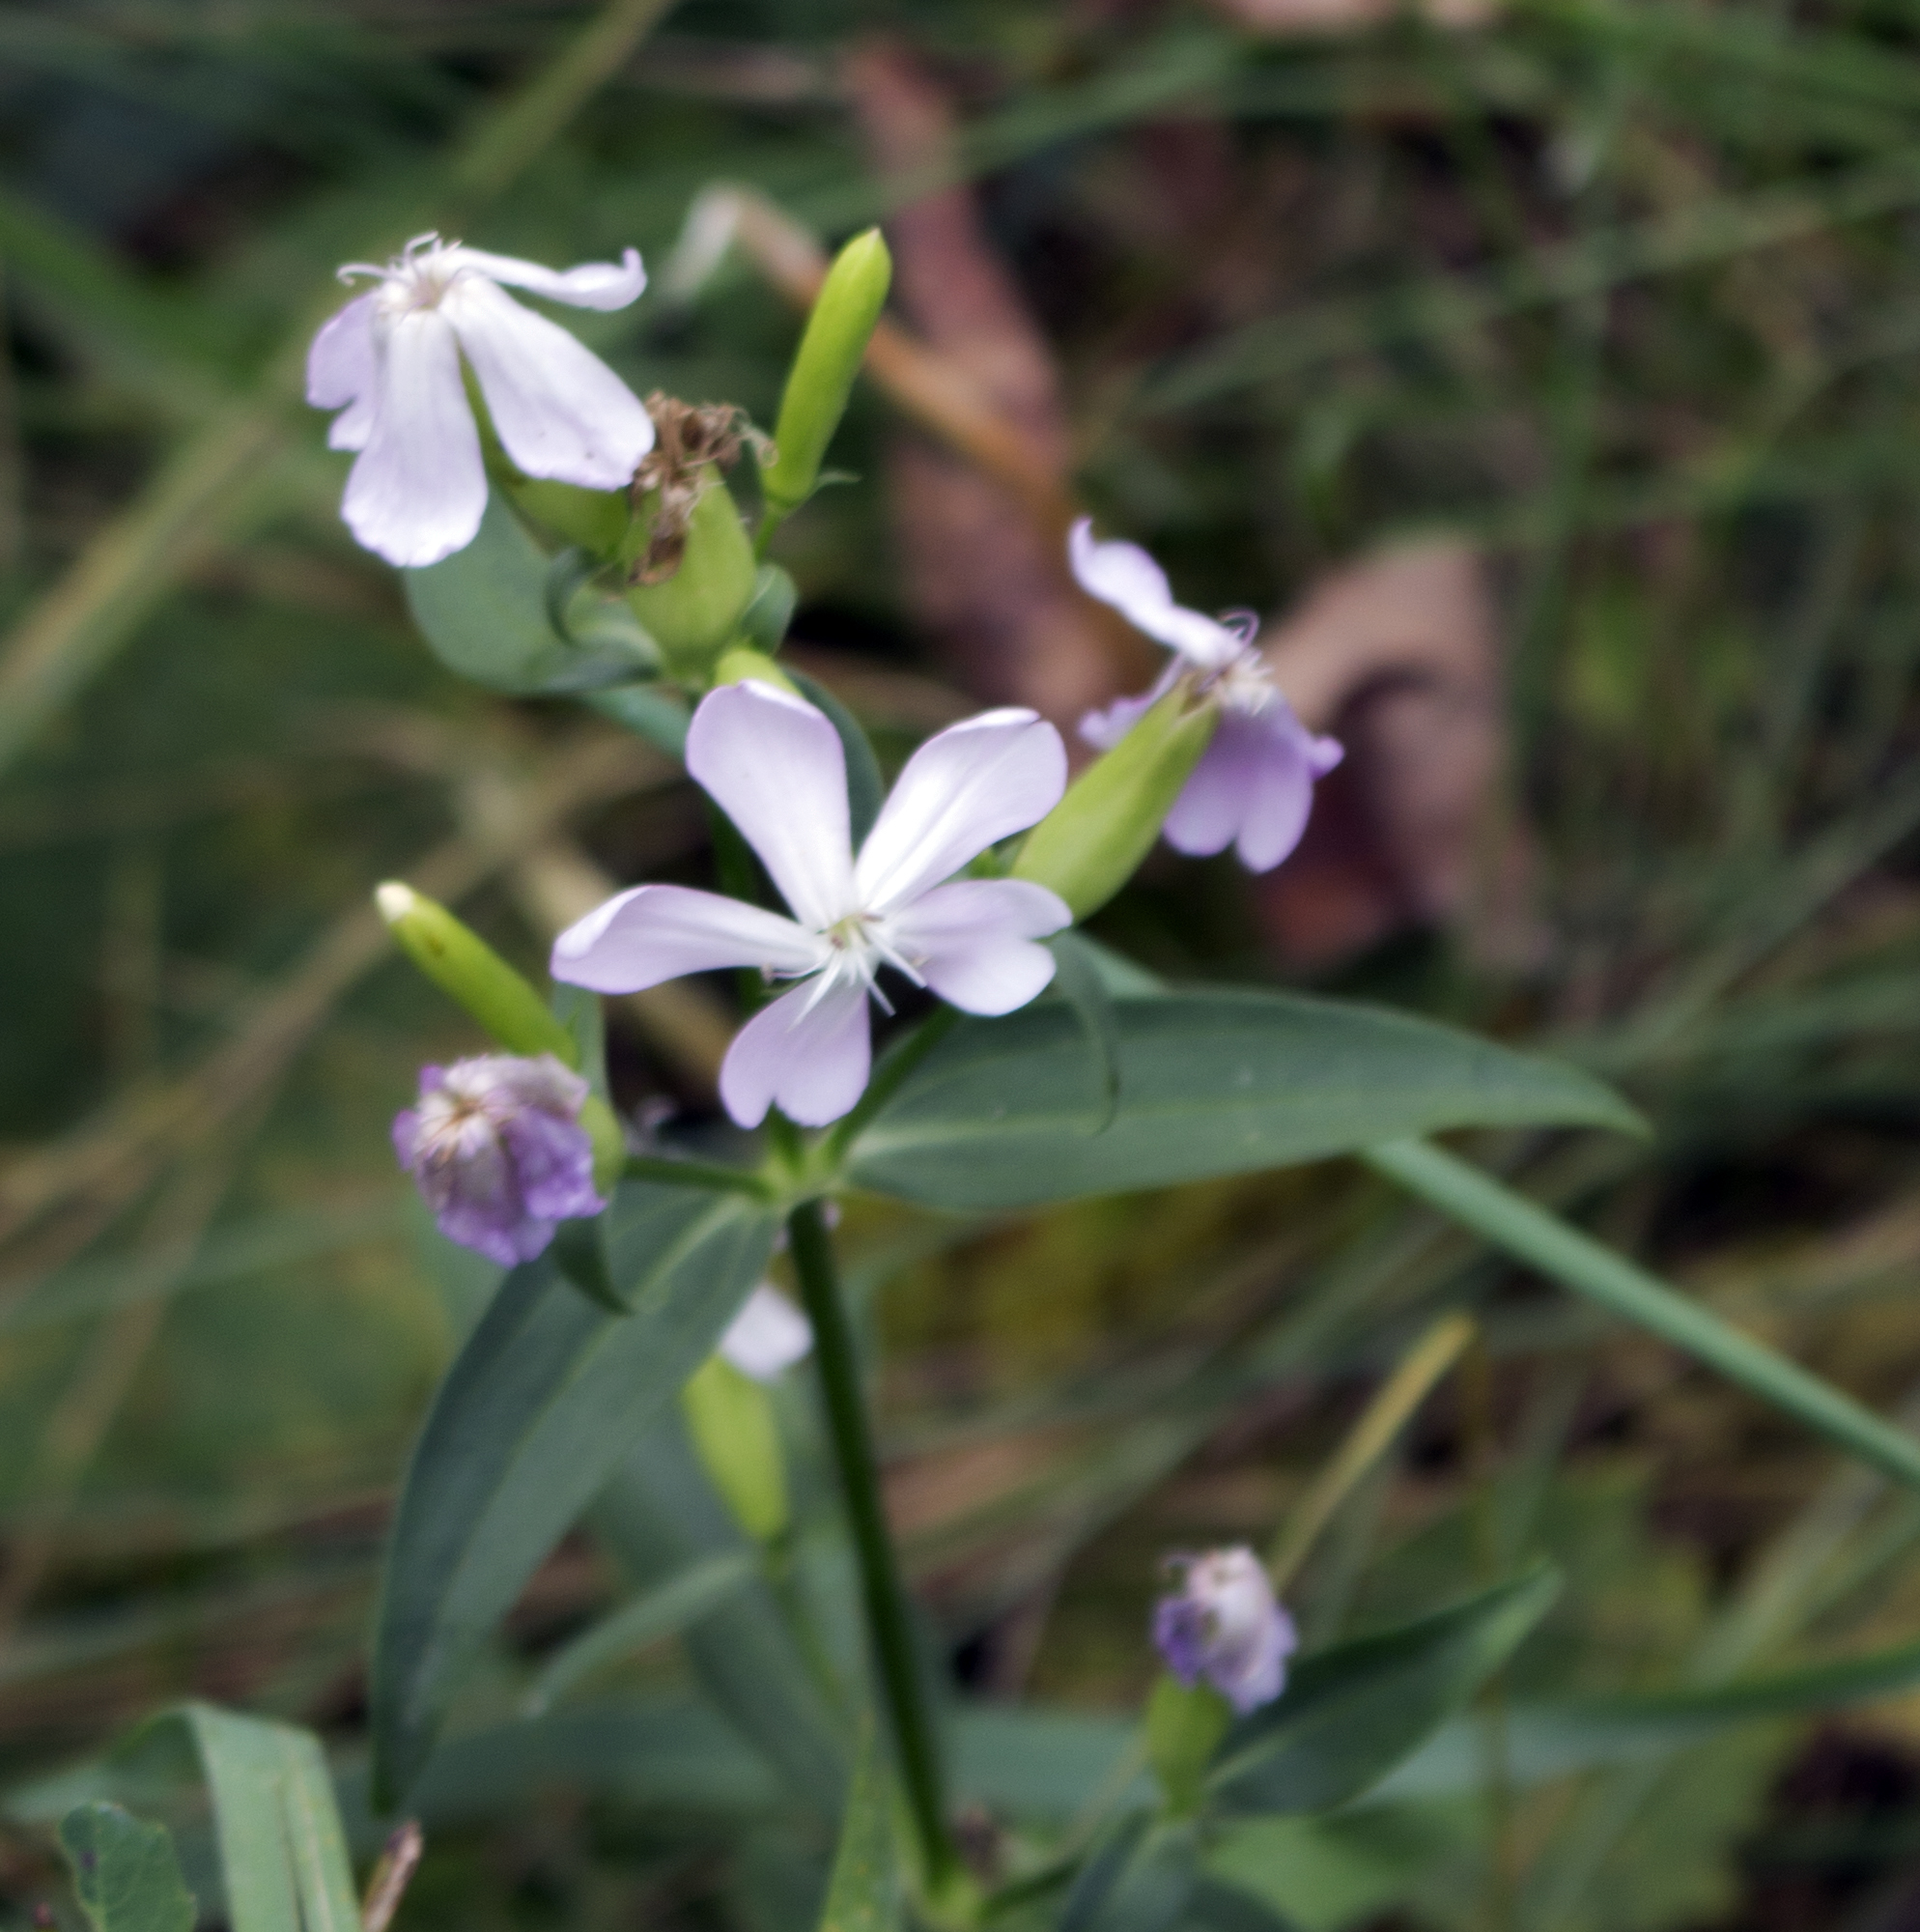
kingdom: Plantae
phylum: Tracheophyta
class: Magnoliopsida
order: Caryophyllales
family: Caryophyllaceae
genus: Saponaria
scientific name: Saponaria officinalis
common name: Soapwort
